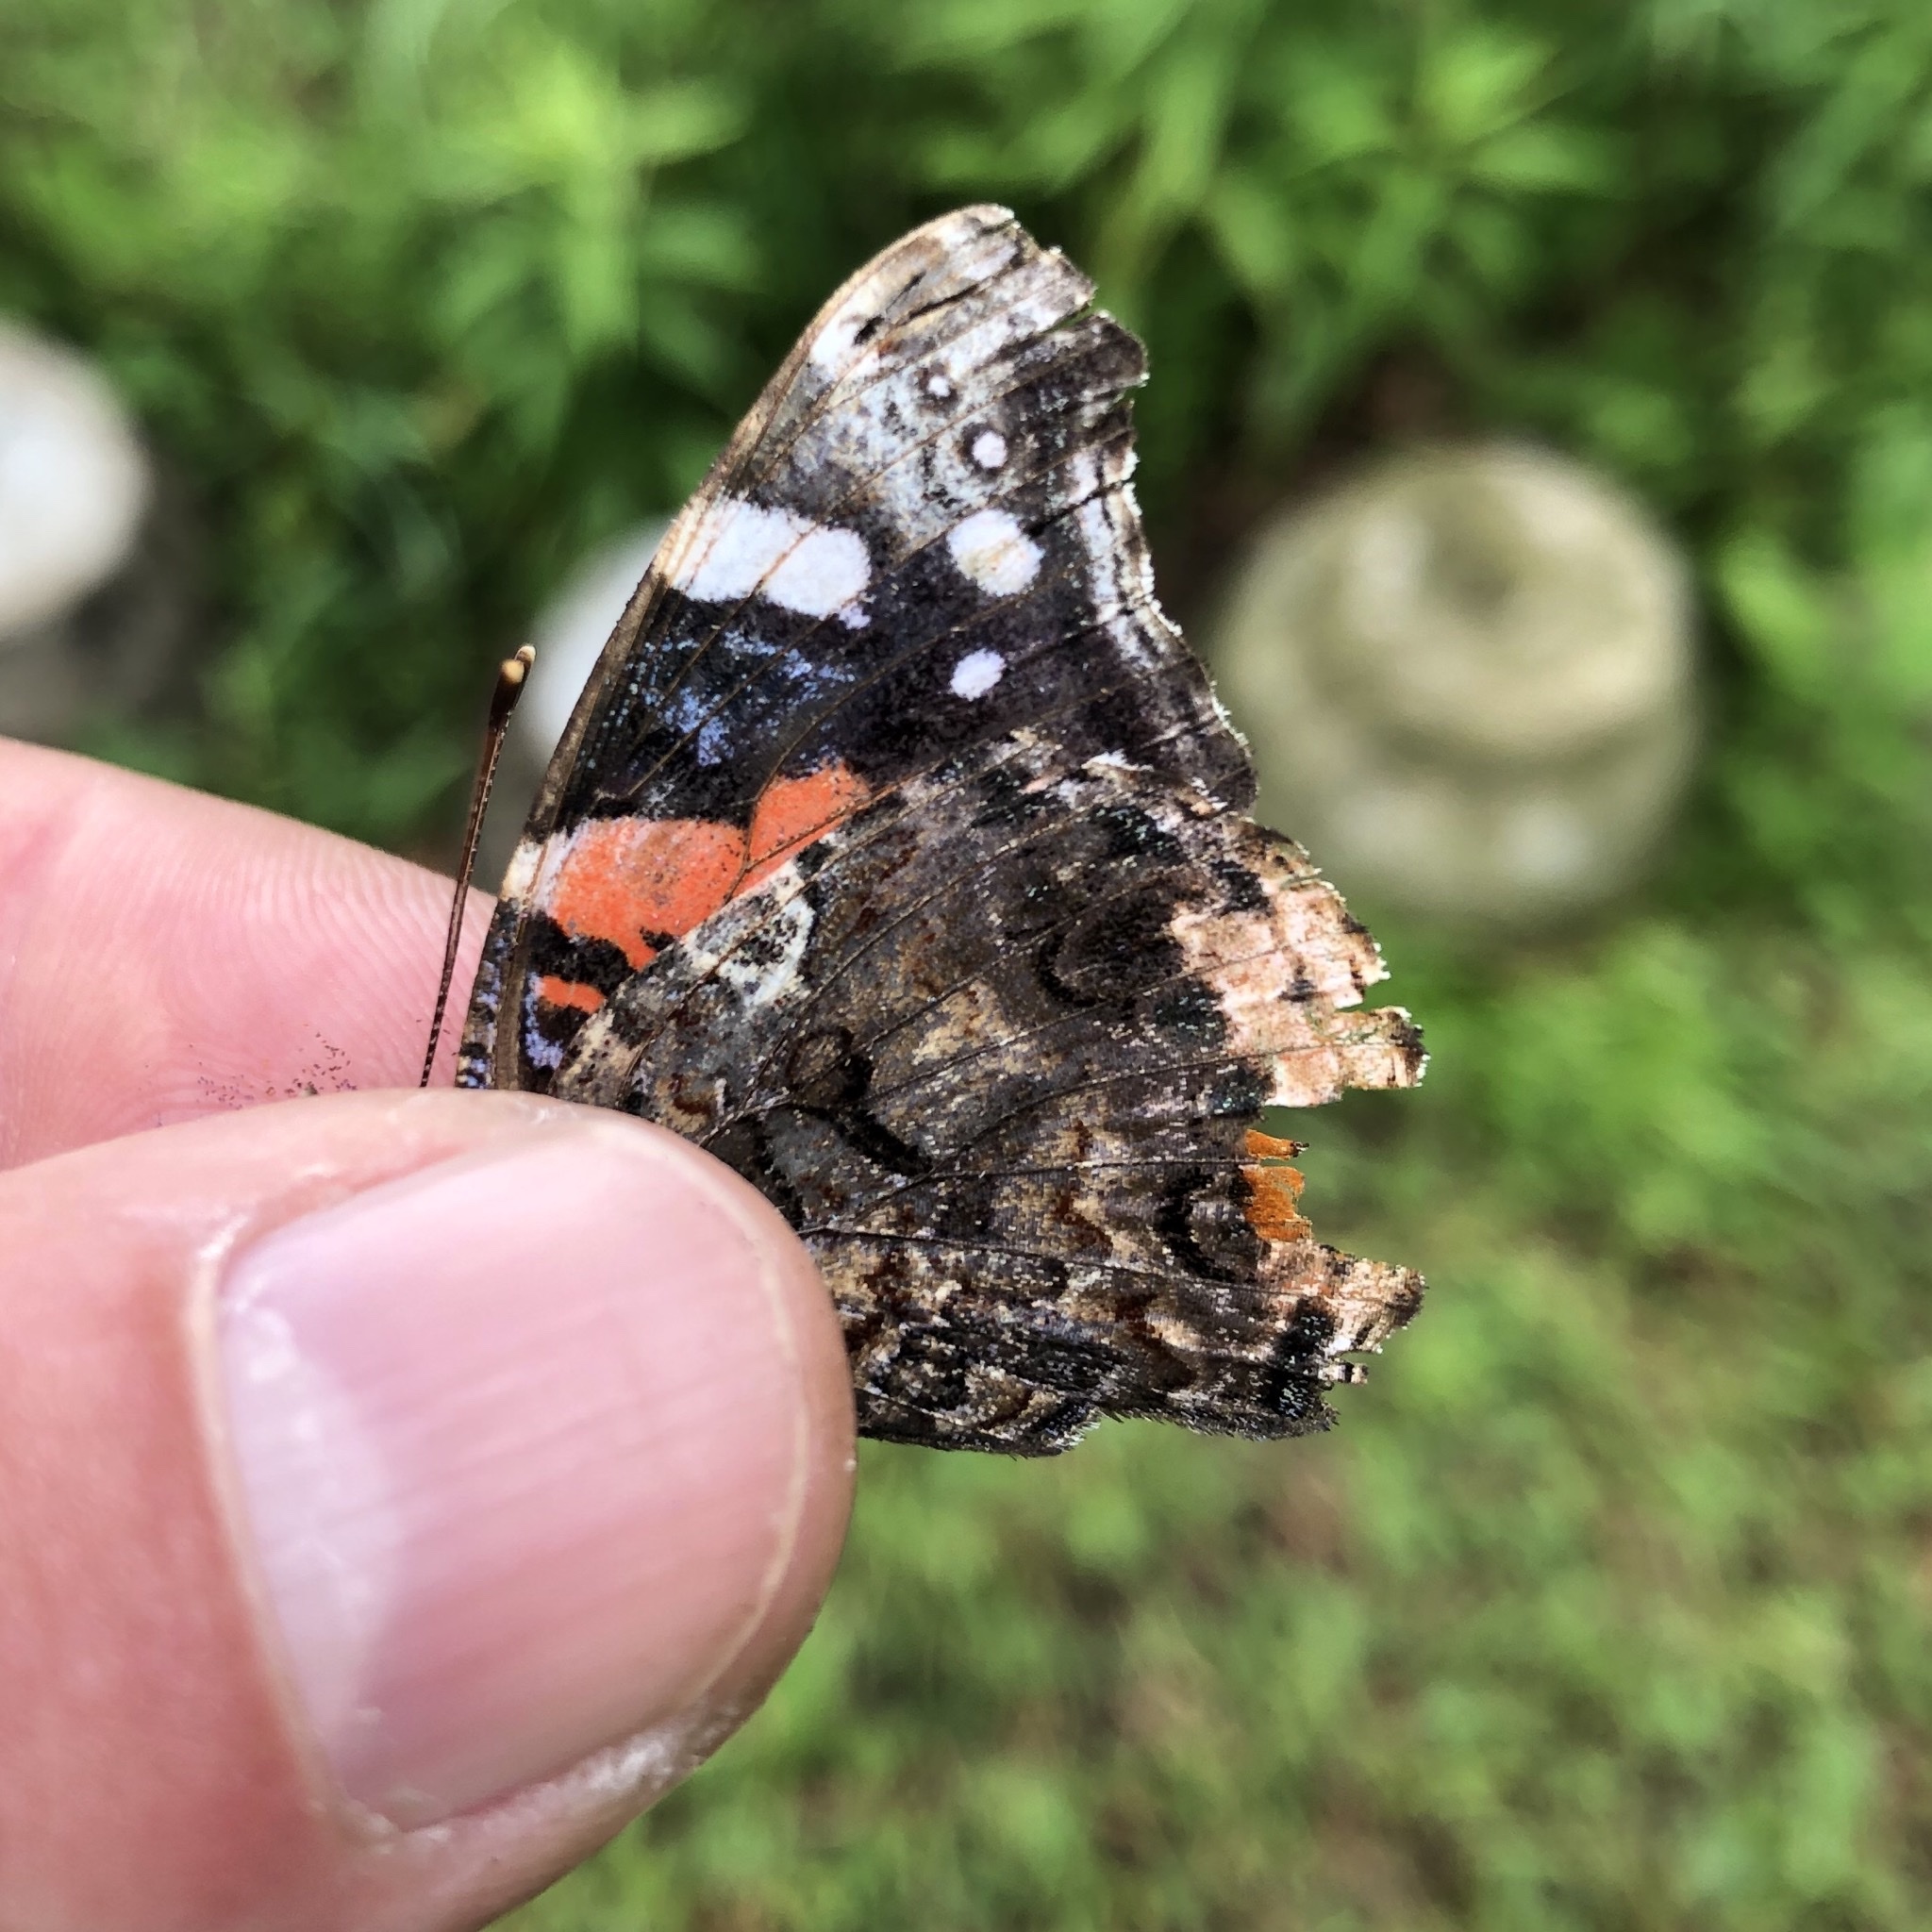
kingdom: Animalia
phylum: Arthropoda
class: Insecta
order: Lepidoptera
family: Nymphalidae
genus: Vanessa
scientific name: Vanessa atalanta
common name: Red admiral
